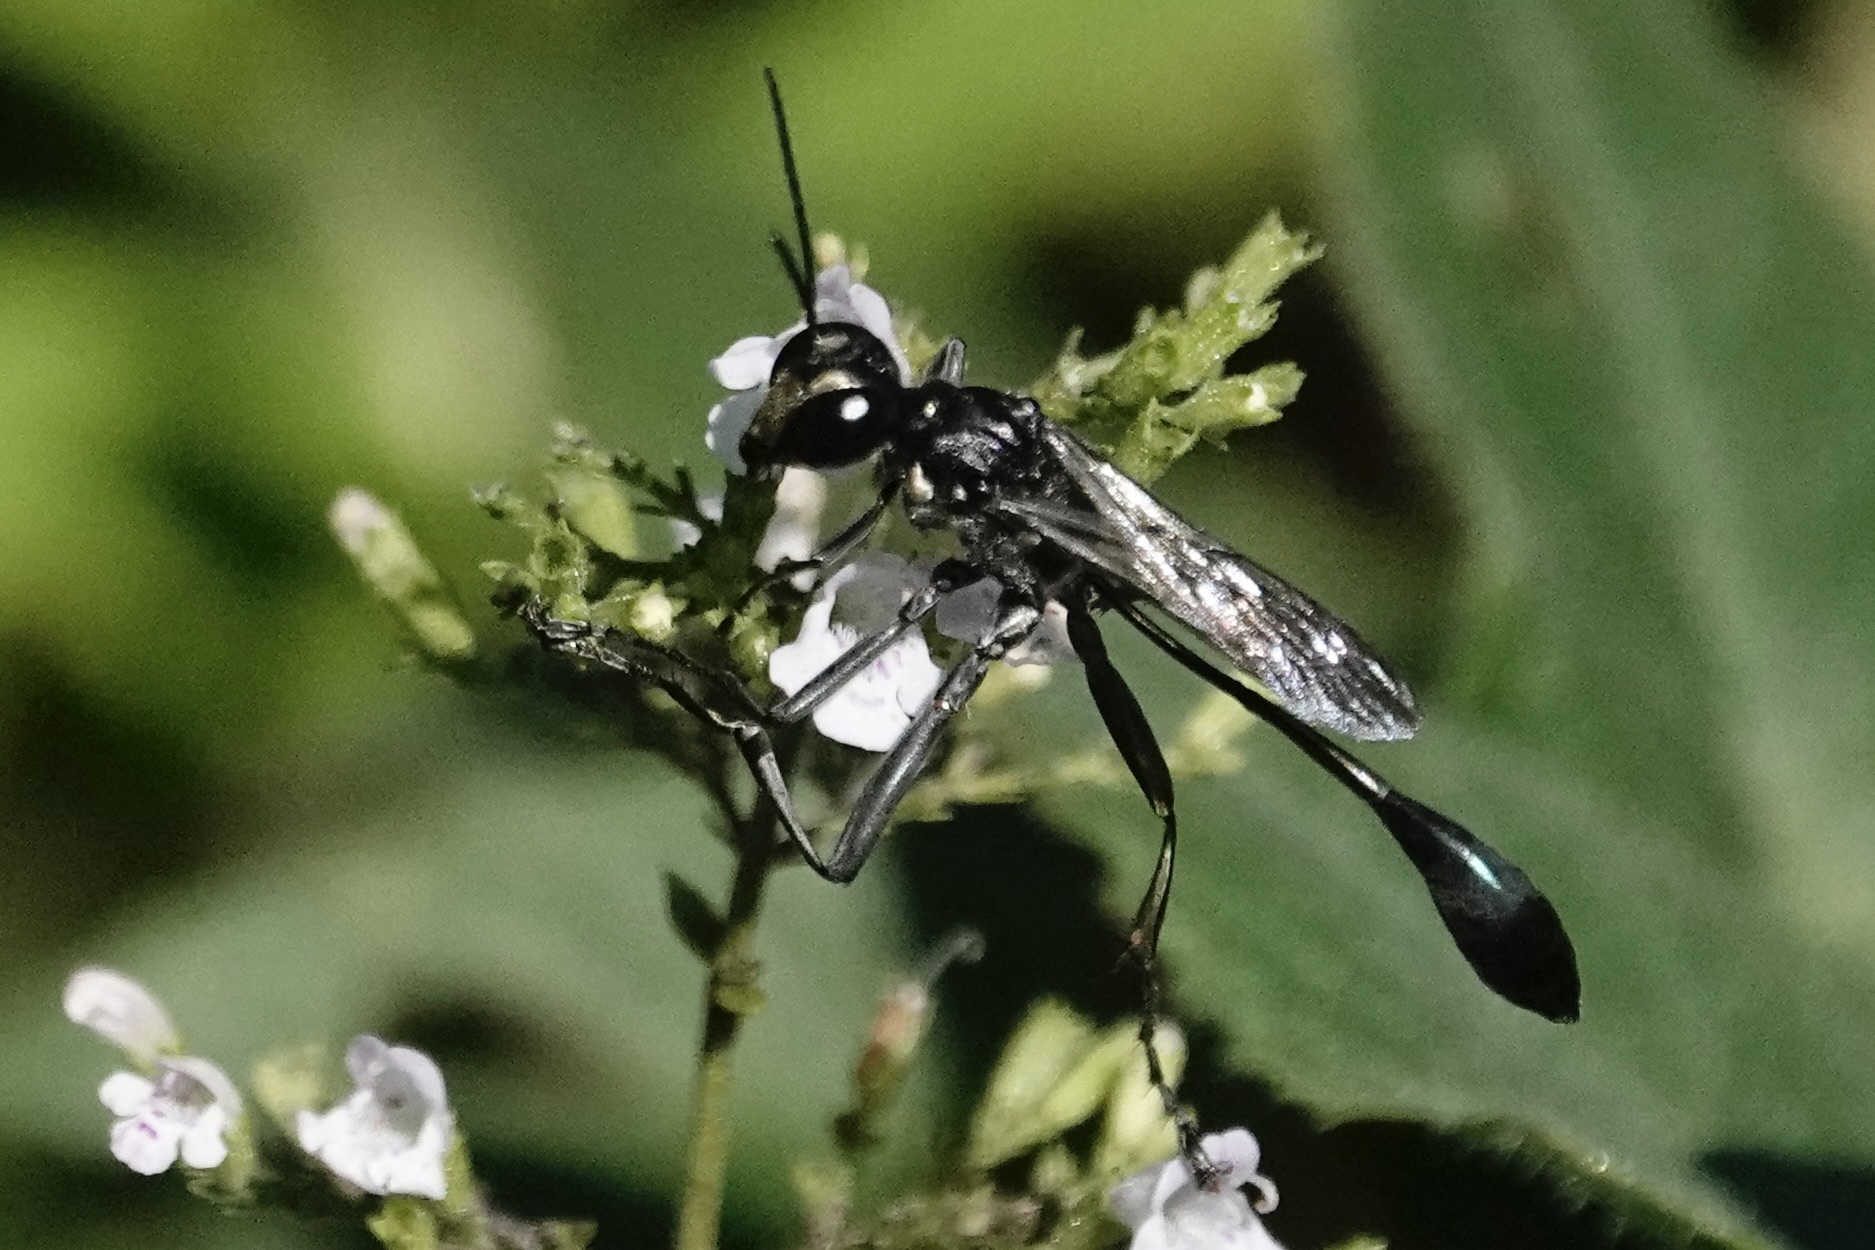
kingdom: Animalia
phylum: Arthropoda
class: Insecta
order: Hymenoptera
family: Sphecidae
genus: Eremnophila
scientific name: Eremnophila aureonotata
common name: Gold-marked thread-waisted wasp
